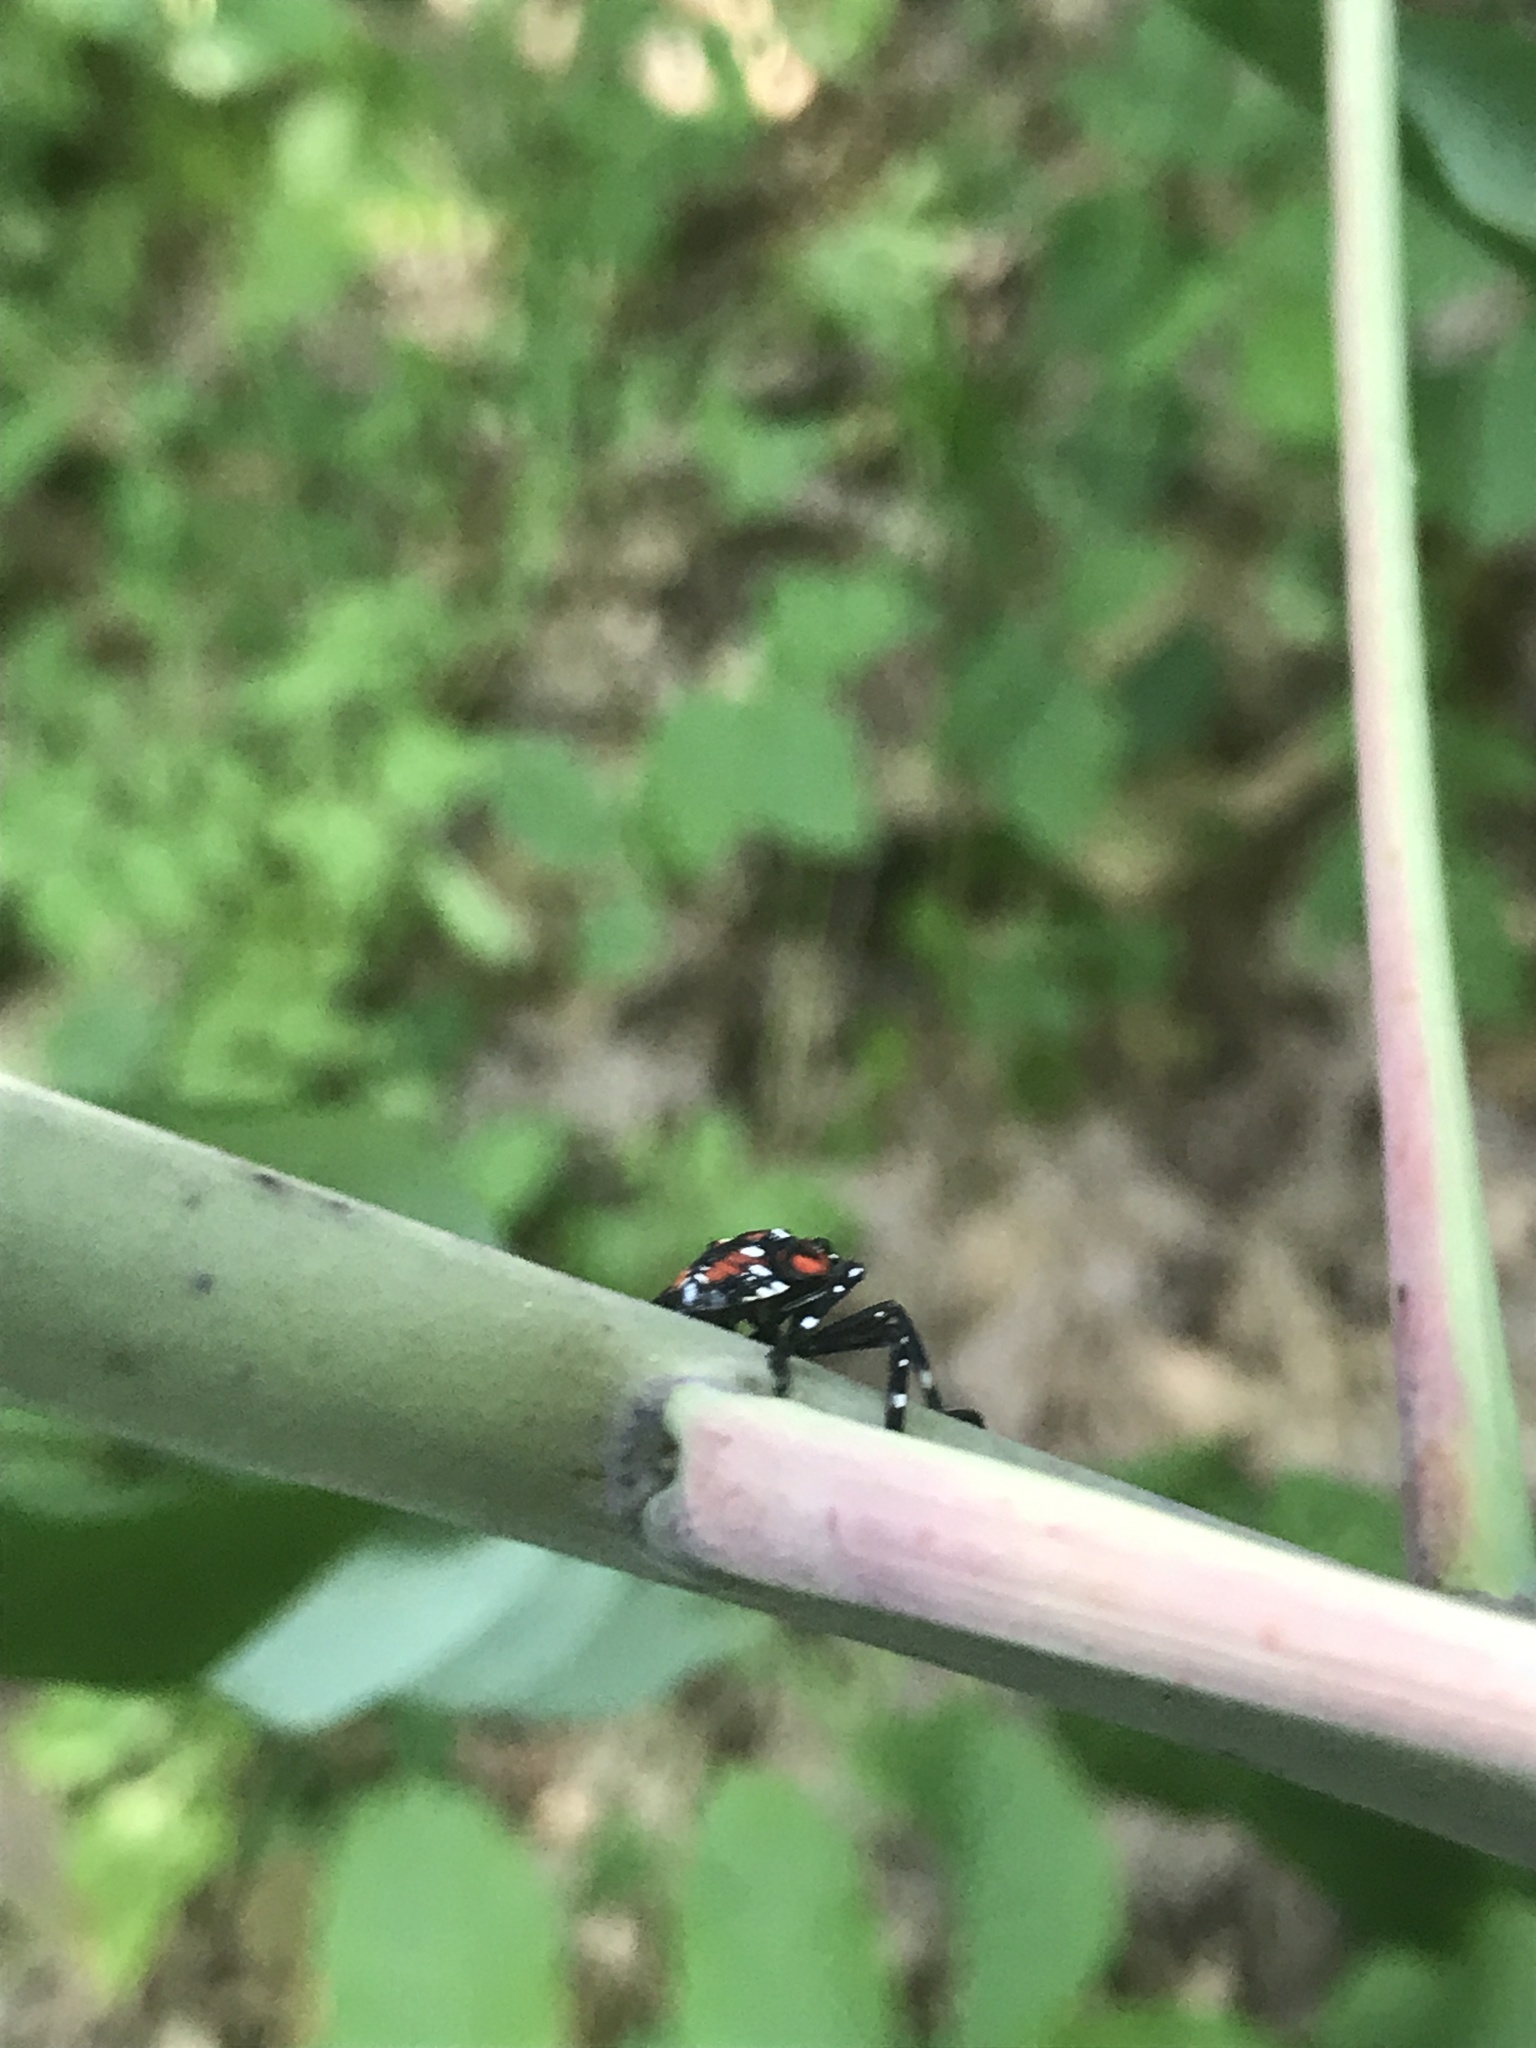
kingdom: Animalia
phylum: Arthropoda
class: Insecta
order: Hemiptera
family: Fulgoridae
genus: Lycorma
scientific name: Lycorma delicatula
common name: Spotted lanternfly
